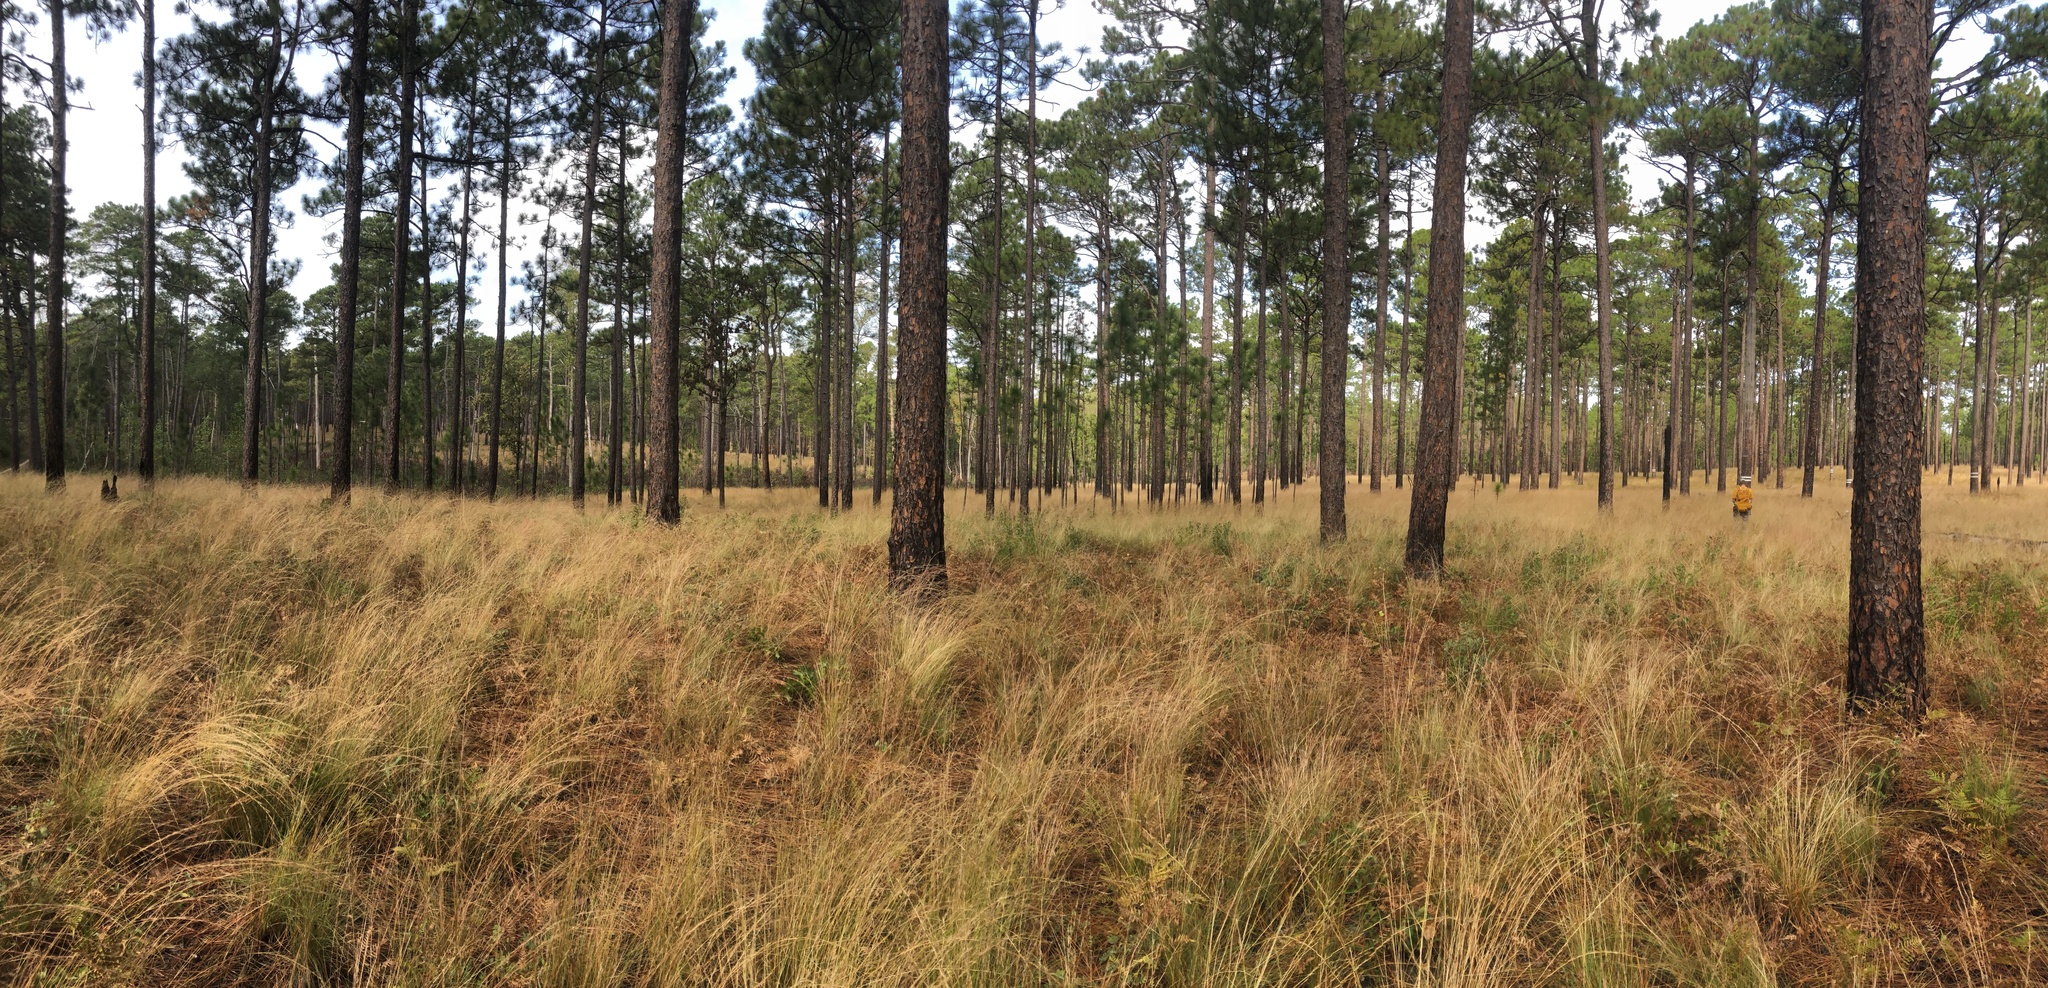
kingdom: Plantae
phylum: Tracheophyta
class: Liliopsida
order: Poales
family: Poaceae
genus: Aristida
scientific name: Aristida stricta
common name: Pineland three-awn
